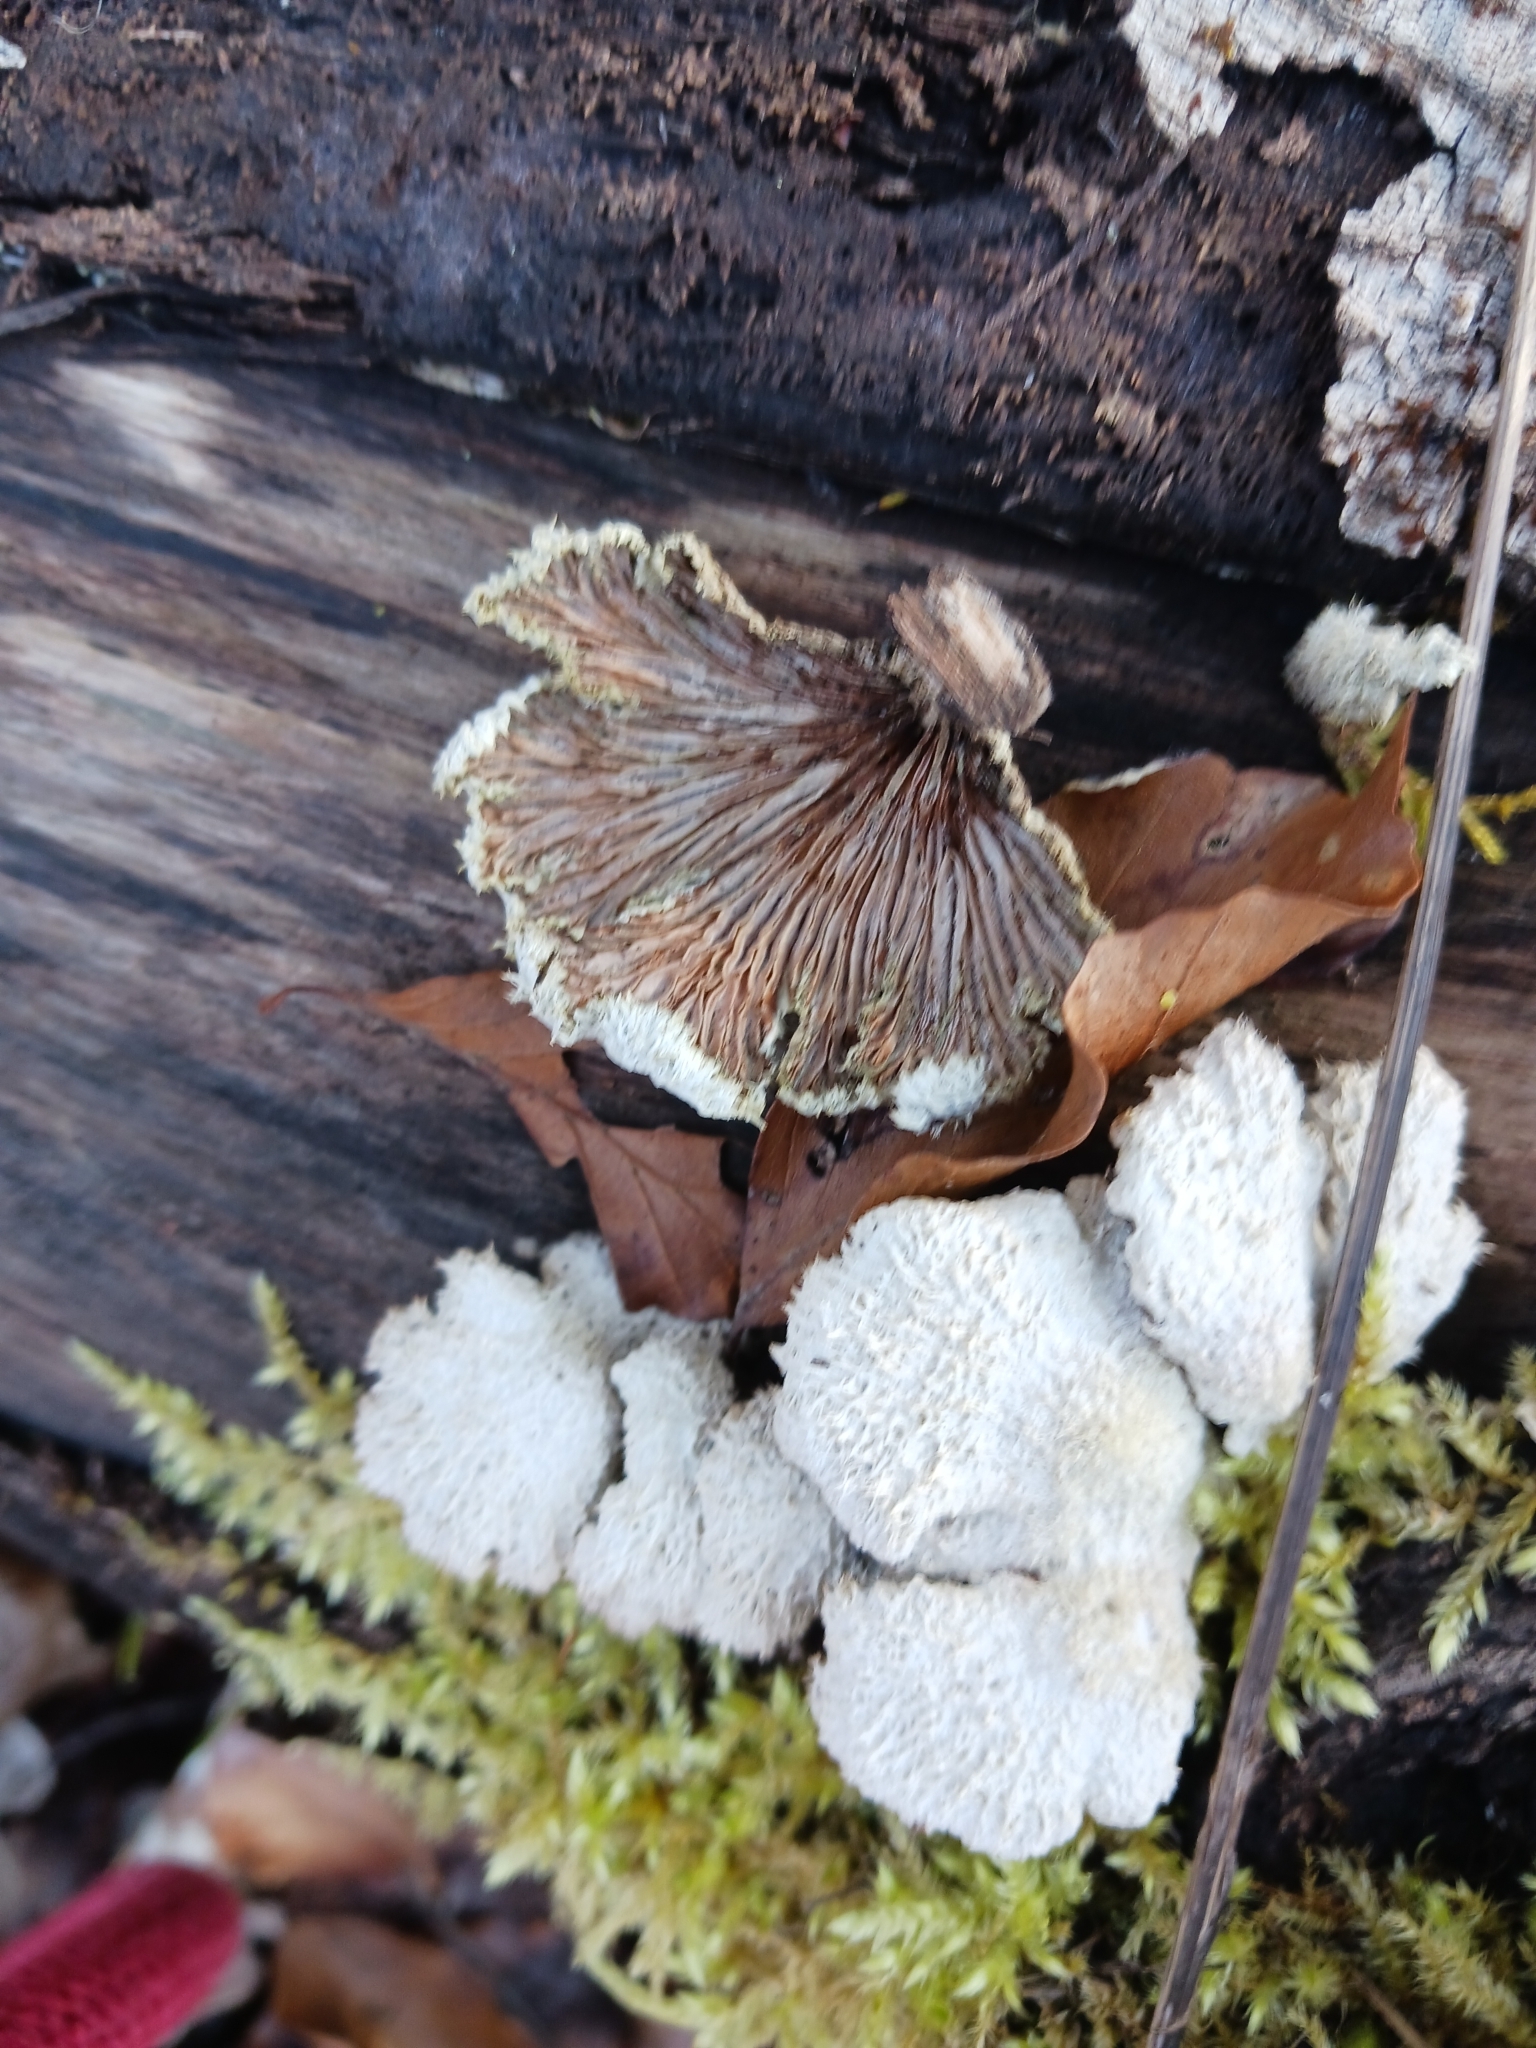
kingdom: Fungi
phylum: Basidiomycota
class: Agaricomycetes
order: Agaricales
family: Schizophyllaceae
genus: Schizophyllum
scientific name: Schizophyllum commune
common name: Common porecrust
